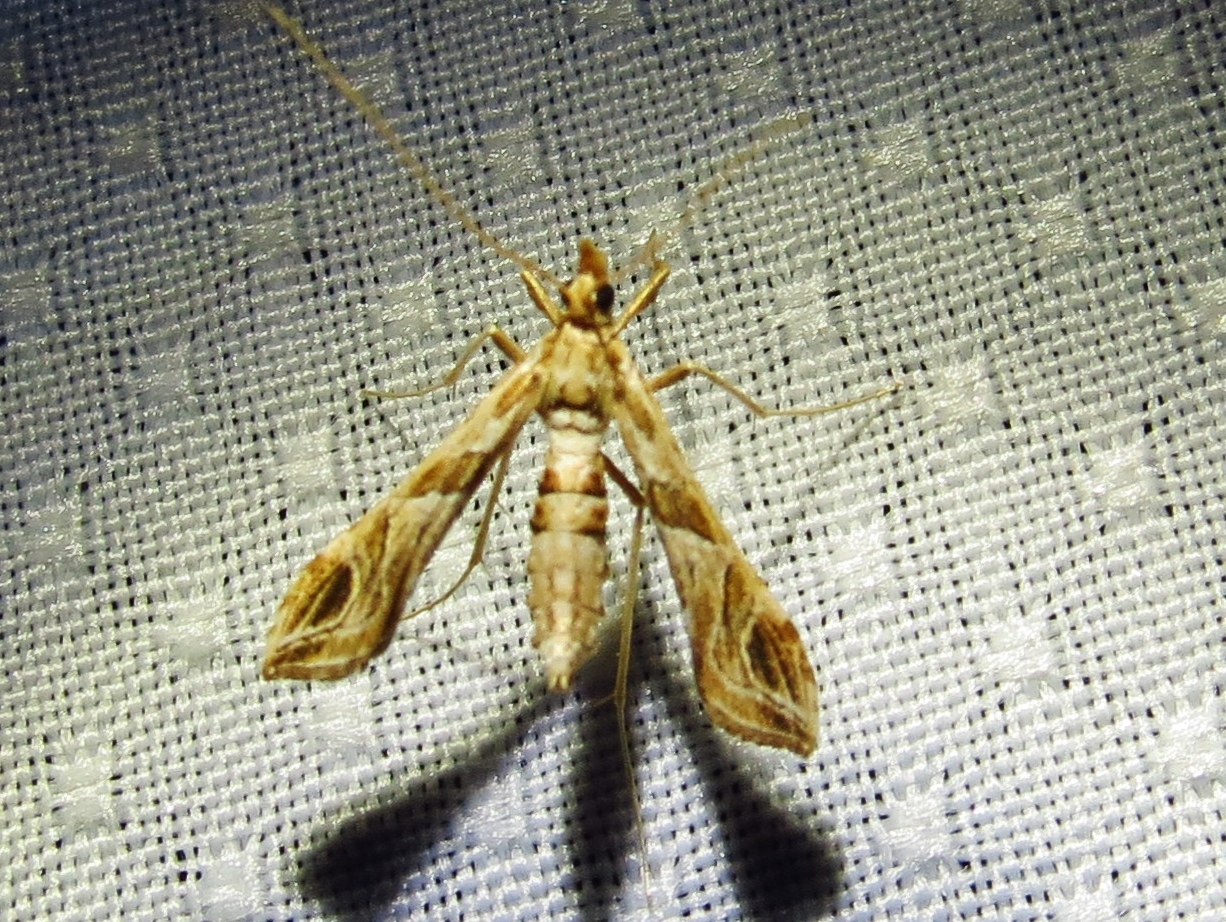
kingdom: Animalia
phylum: Arthropoda
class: Insecta
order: Lepidoptera
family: Crambidae
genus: Lineodes
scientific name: Lineodes interrupta
